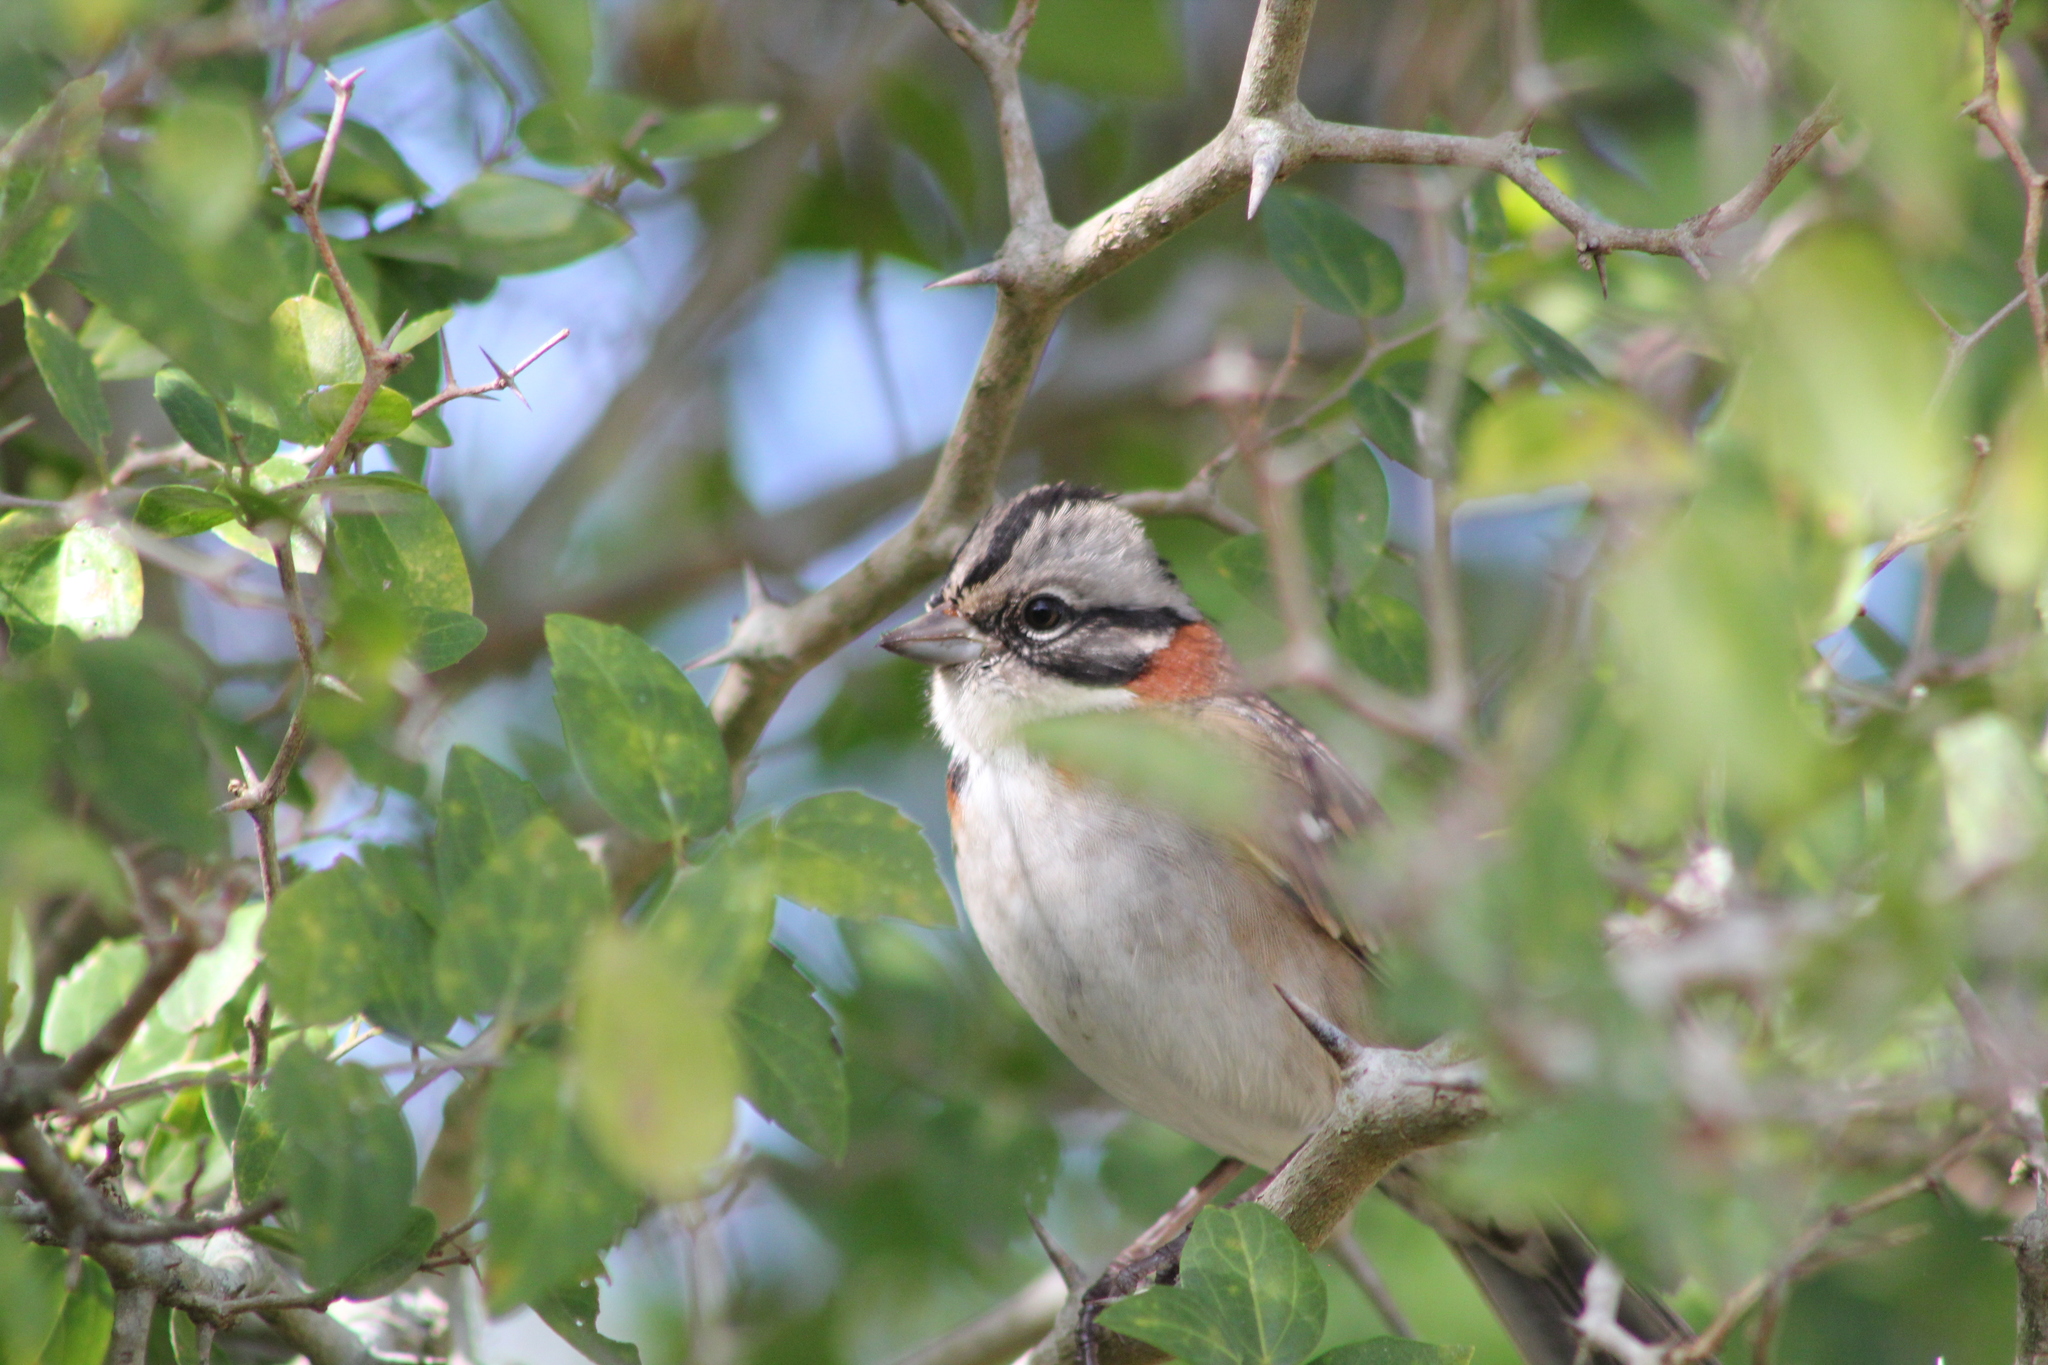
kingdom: Animalia
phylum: Chordata
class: Aves
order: Passeriformes
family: Passerellidae
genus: Zonotrichia
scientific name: Zonotrichia capensis
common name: Rufous-collared sparrow
